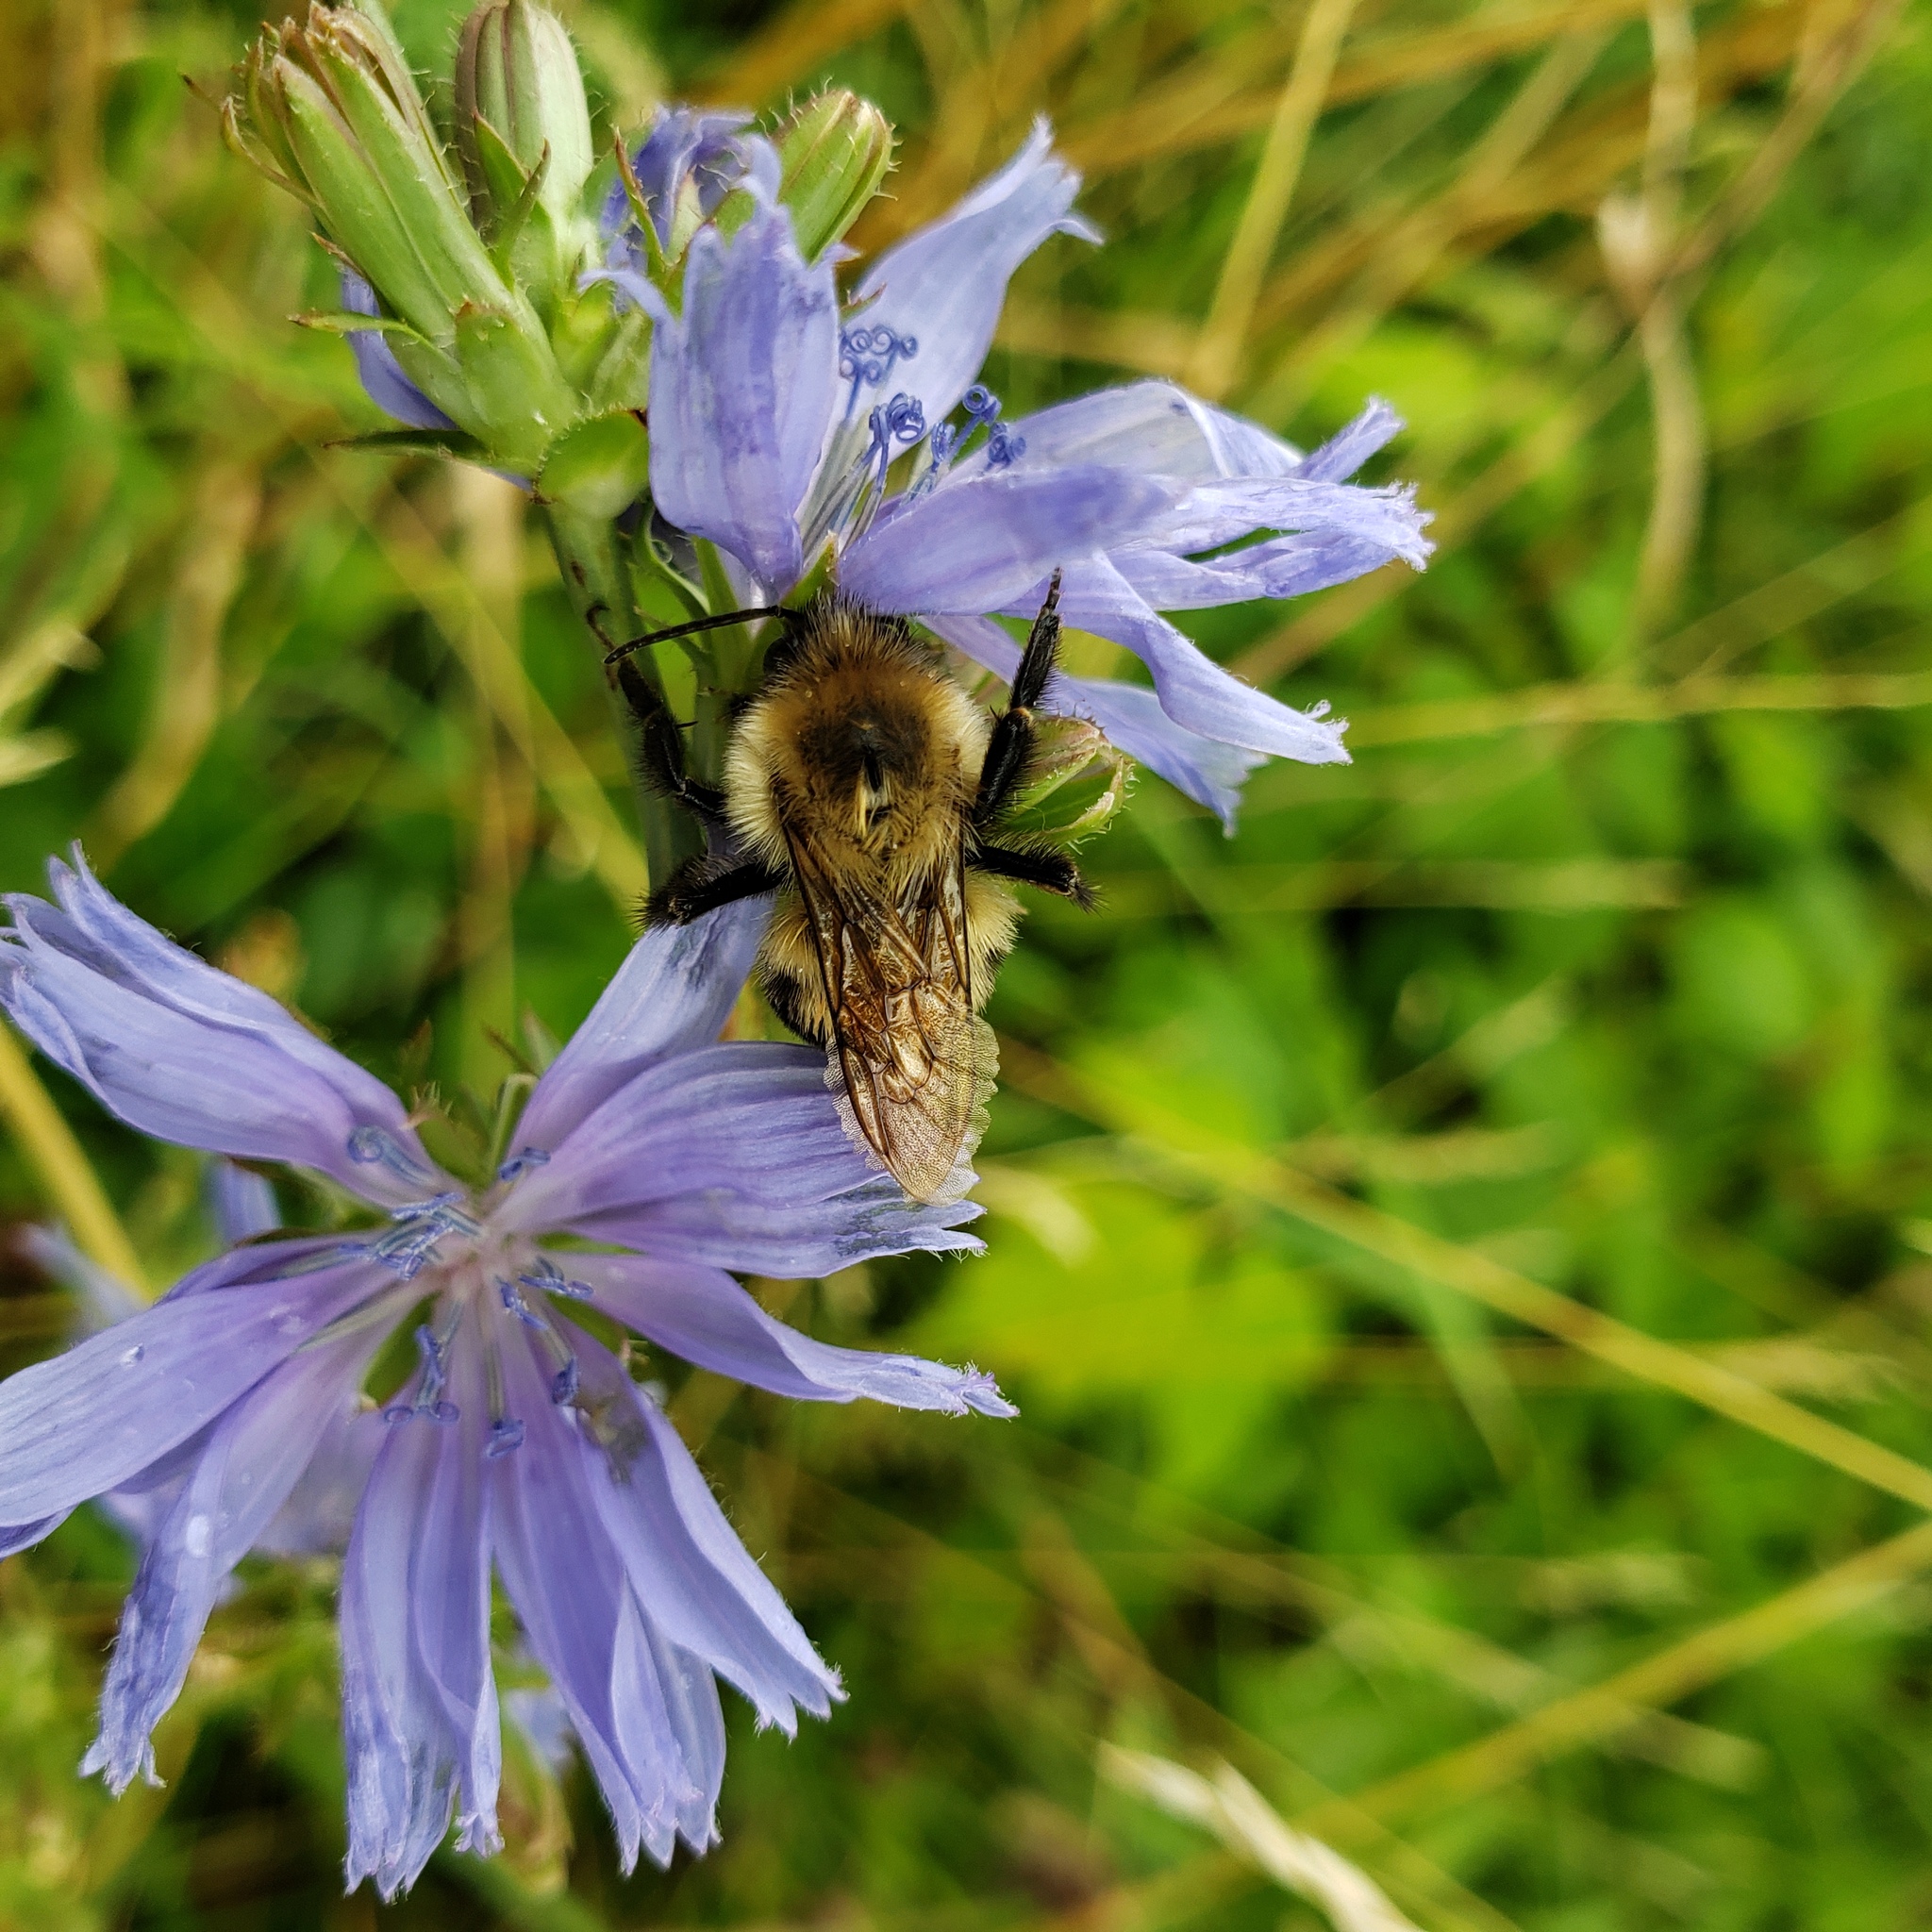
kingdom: Animalia
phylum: Arthropoda
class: Insecta
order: Hymenoptera
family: Apidae
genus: Bombus
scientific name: Bombus bimaculatus
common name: Two-spotted bumble bee
